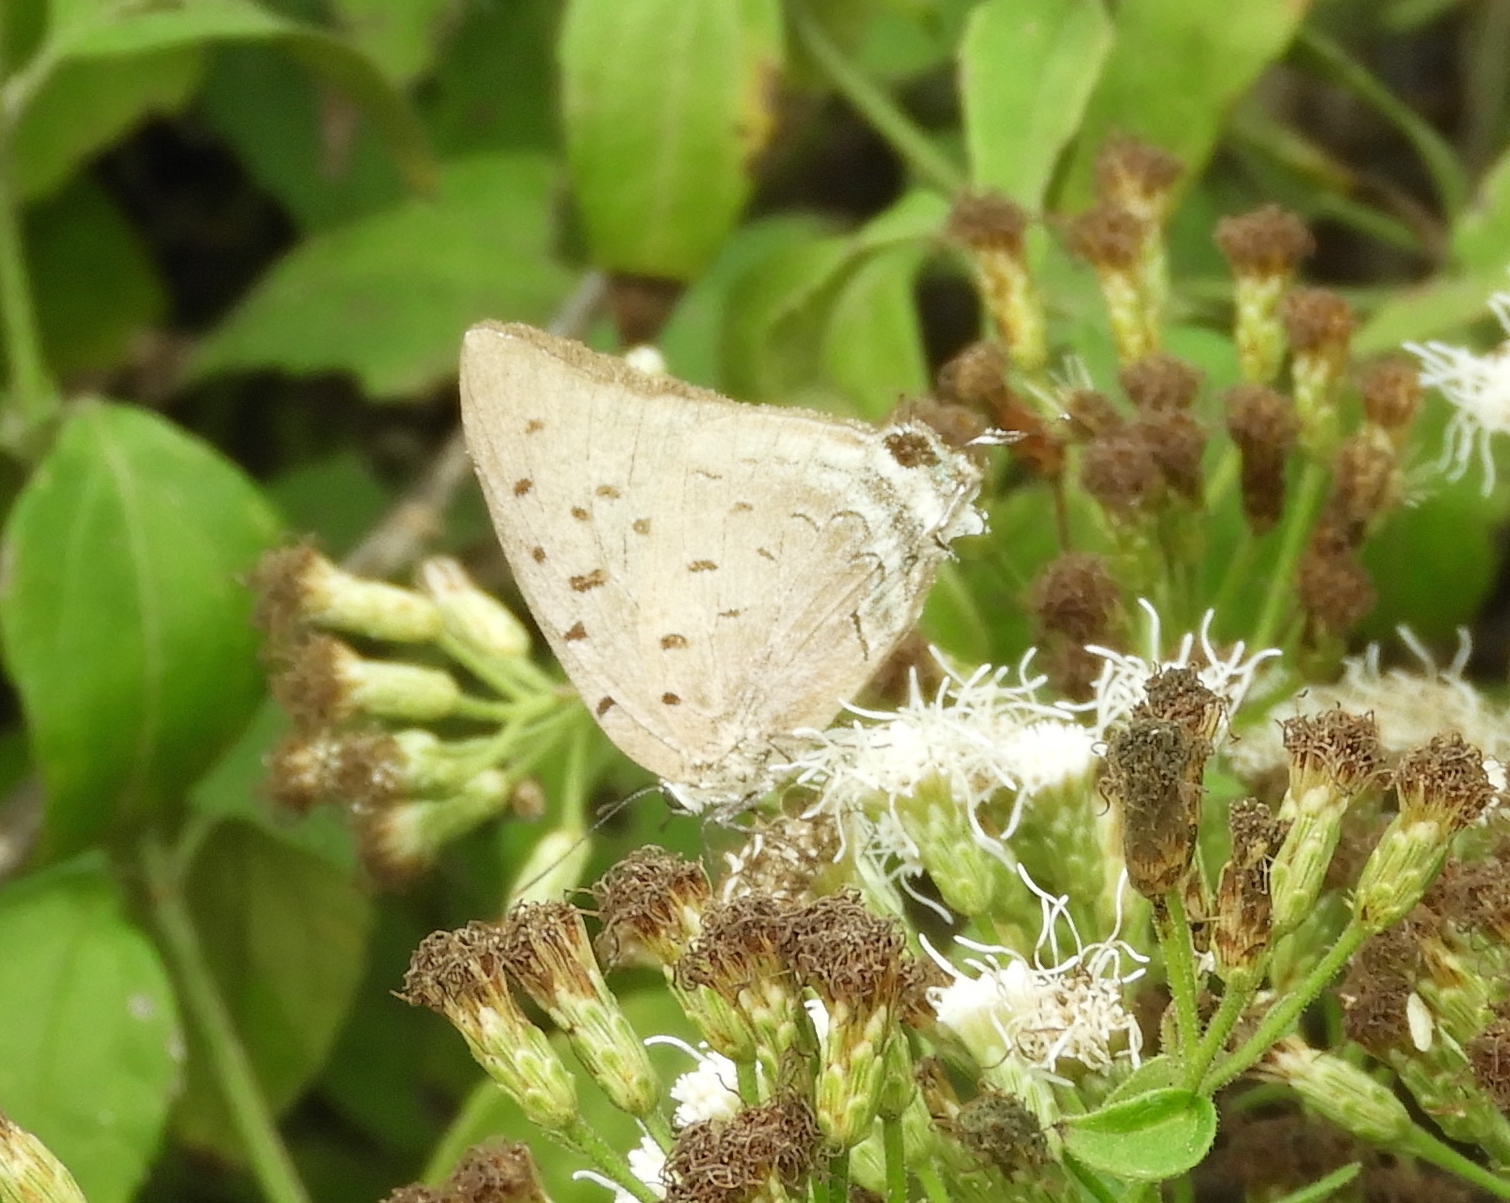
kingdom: Animalia
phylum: Arthropoda
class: Insecta
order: Lepidoptera
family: Lycaenidae
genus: Pseudolycaena
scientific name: Pseudolycaena damo
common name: Sky-blue hairstreak
